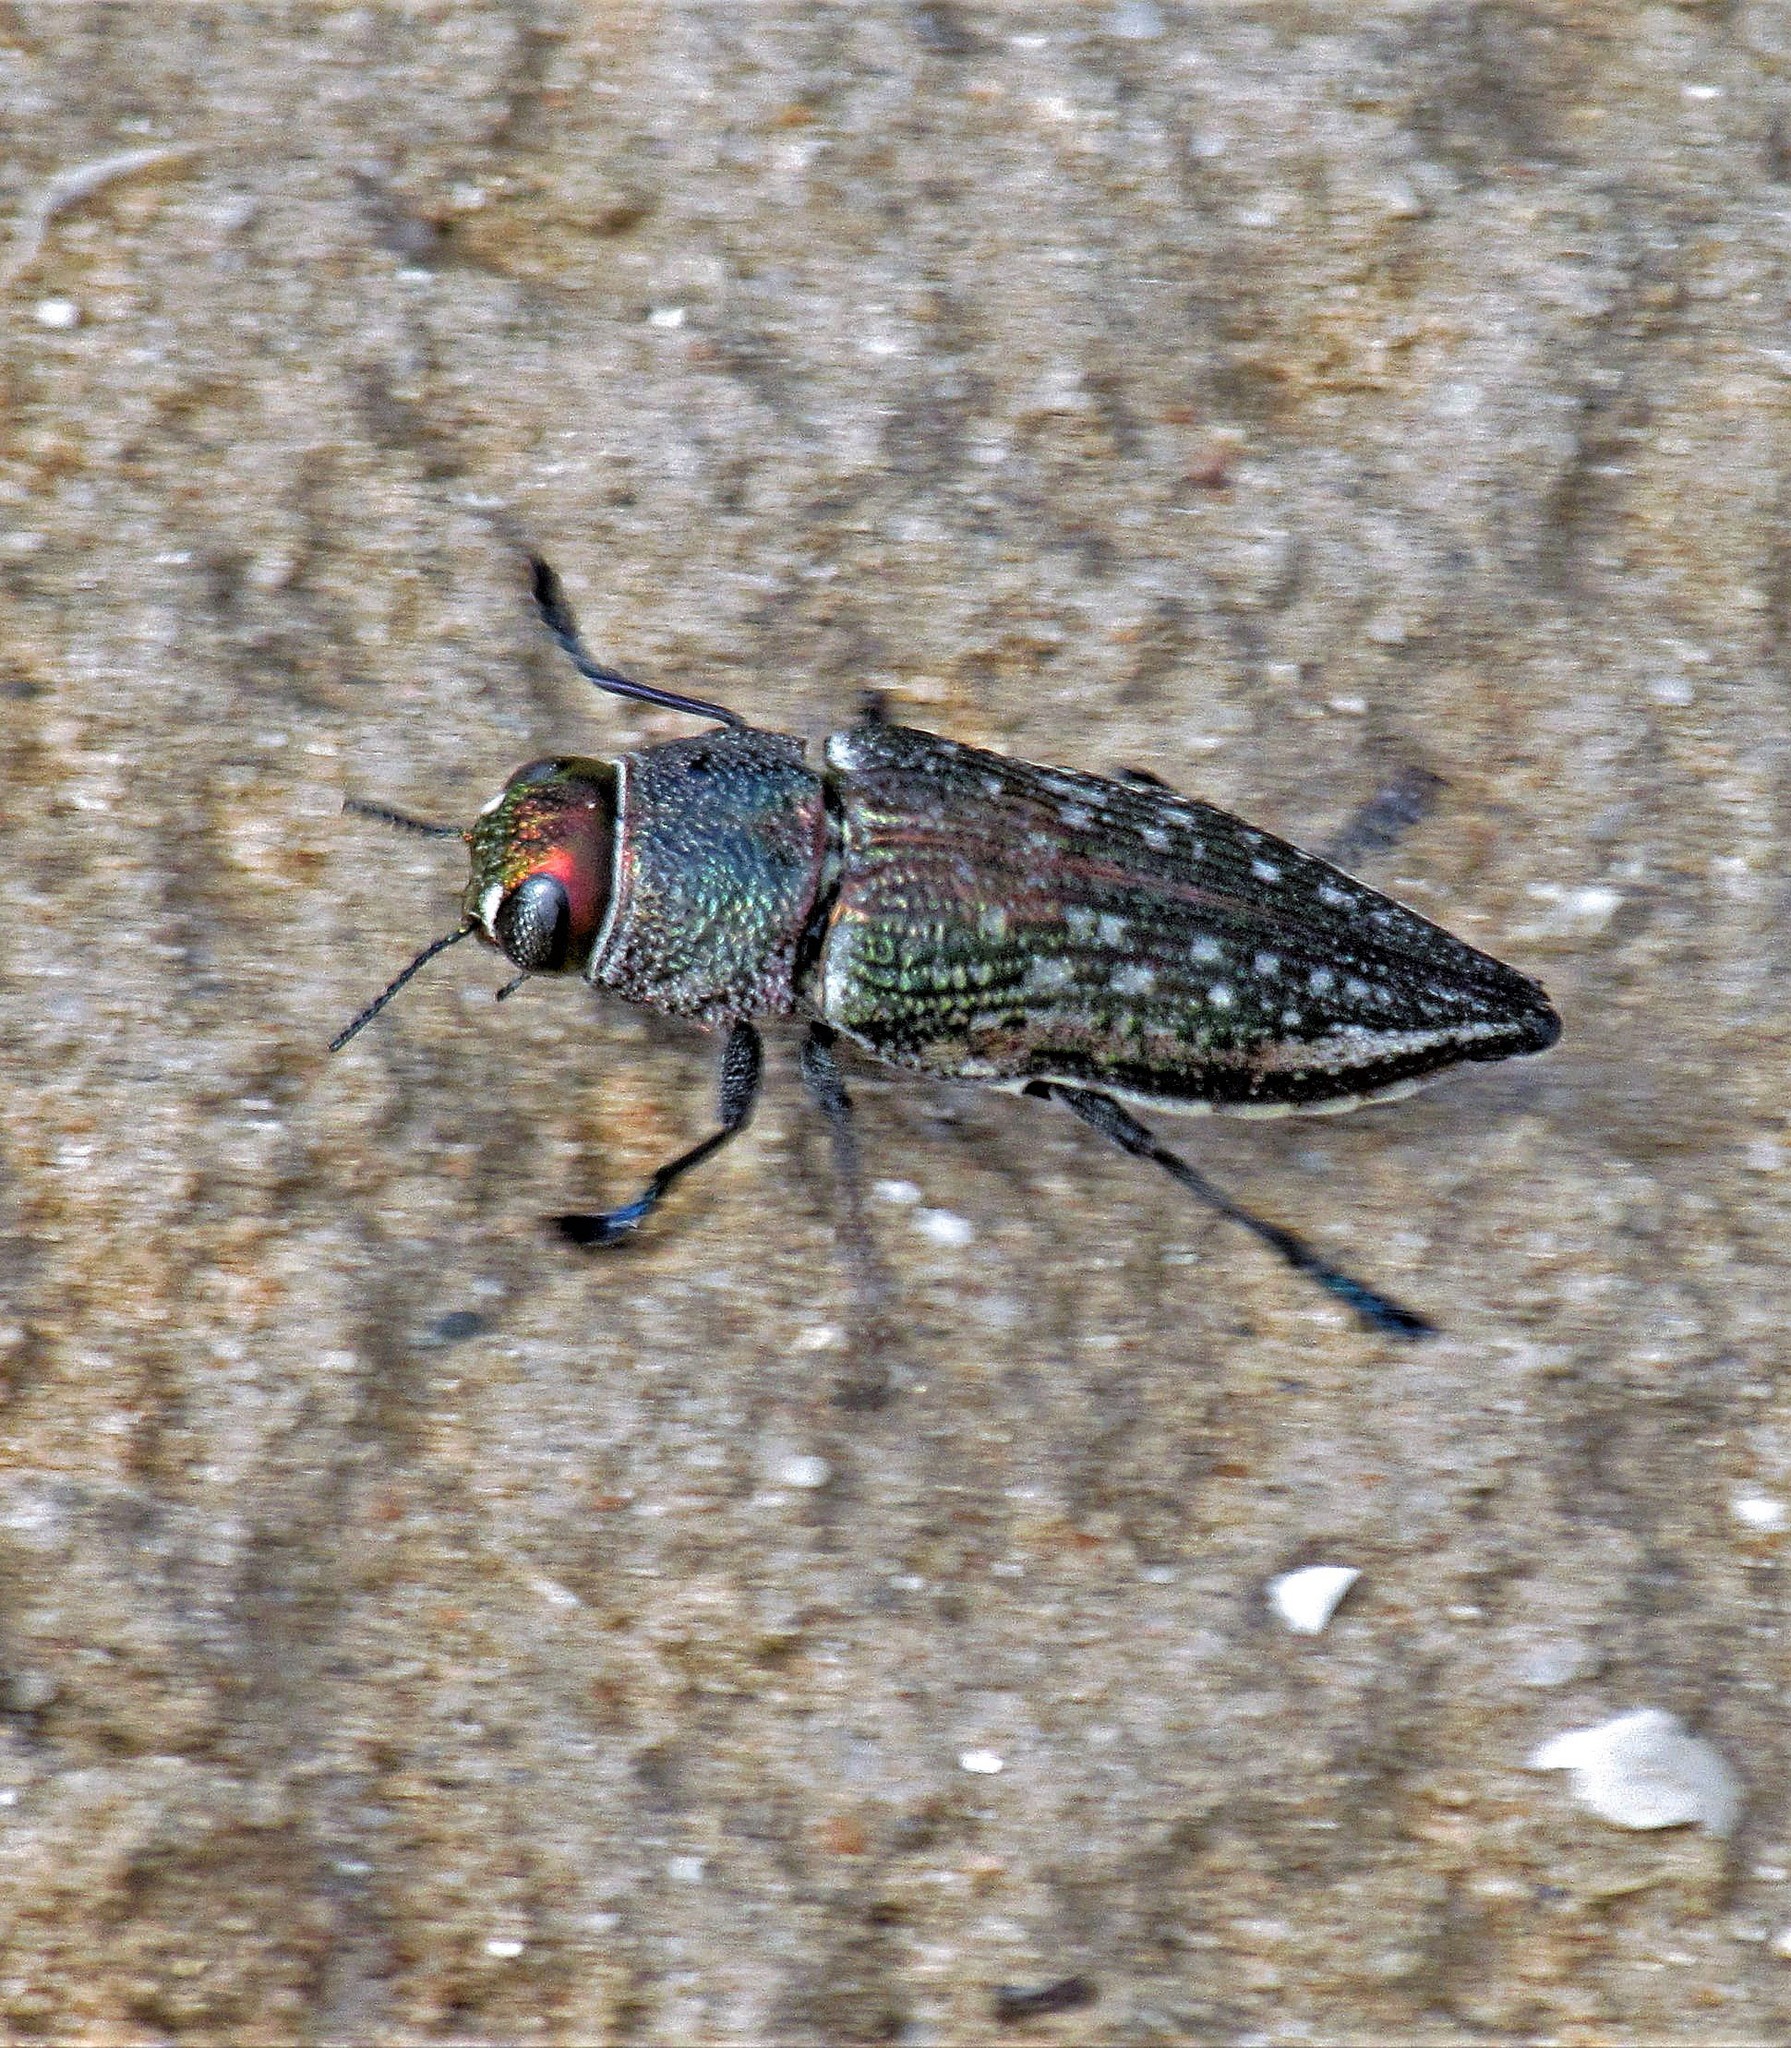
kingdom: Animalia
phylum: Arthropoda
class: Insecta
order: Coleoptera
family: Buprestidae
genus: Lampetis
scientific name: Lampetis plagiata
